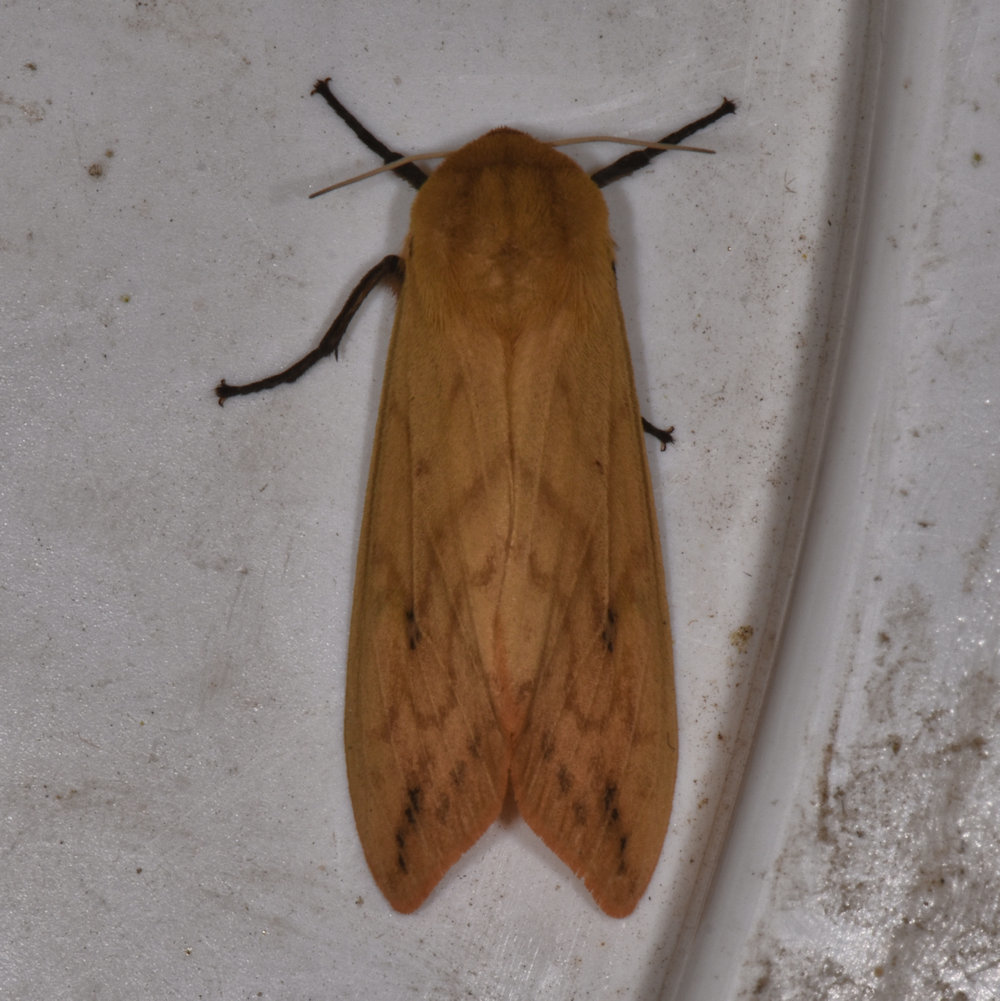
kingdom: Animalia
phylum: Arthropoda
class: Insecta
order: Lepidoptera
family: Erebidae
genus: Pyrrharctia
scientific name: Pyrrharctia isabella
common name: Isabella tiger moth
